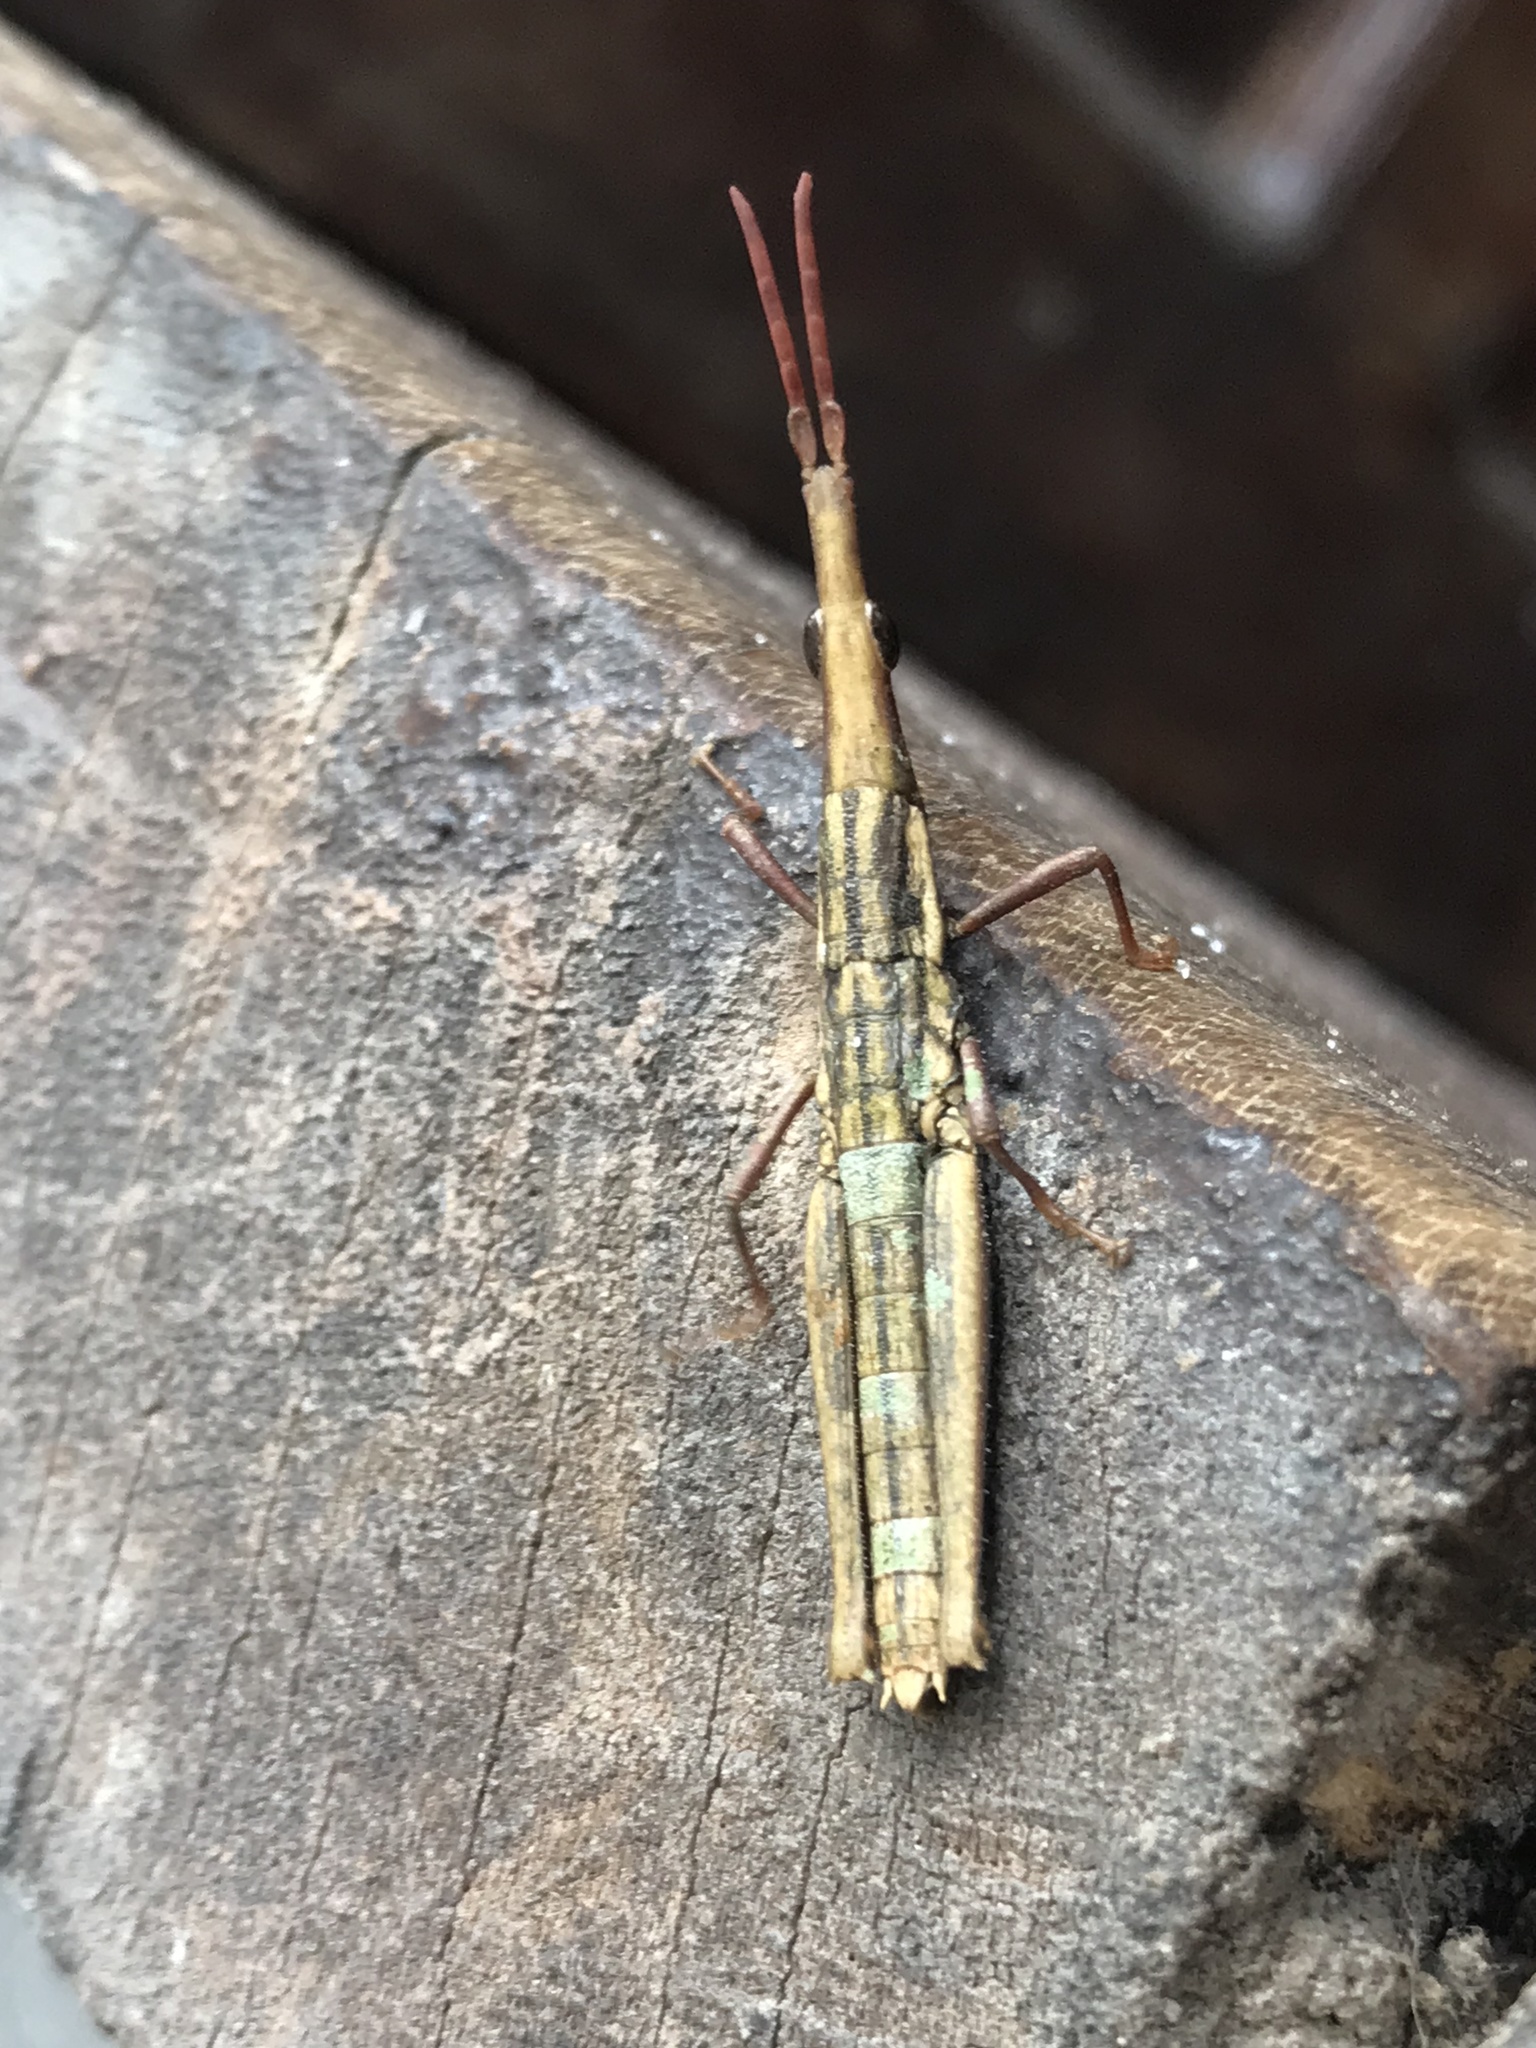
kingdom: Animalia
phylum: Arthropoda
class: Insecta
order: Orthoptera
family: Pyrgomorphidae
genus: Omura
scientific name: Omura congrua
